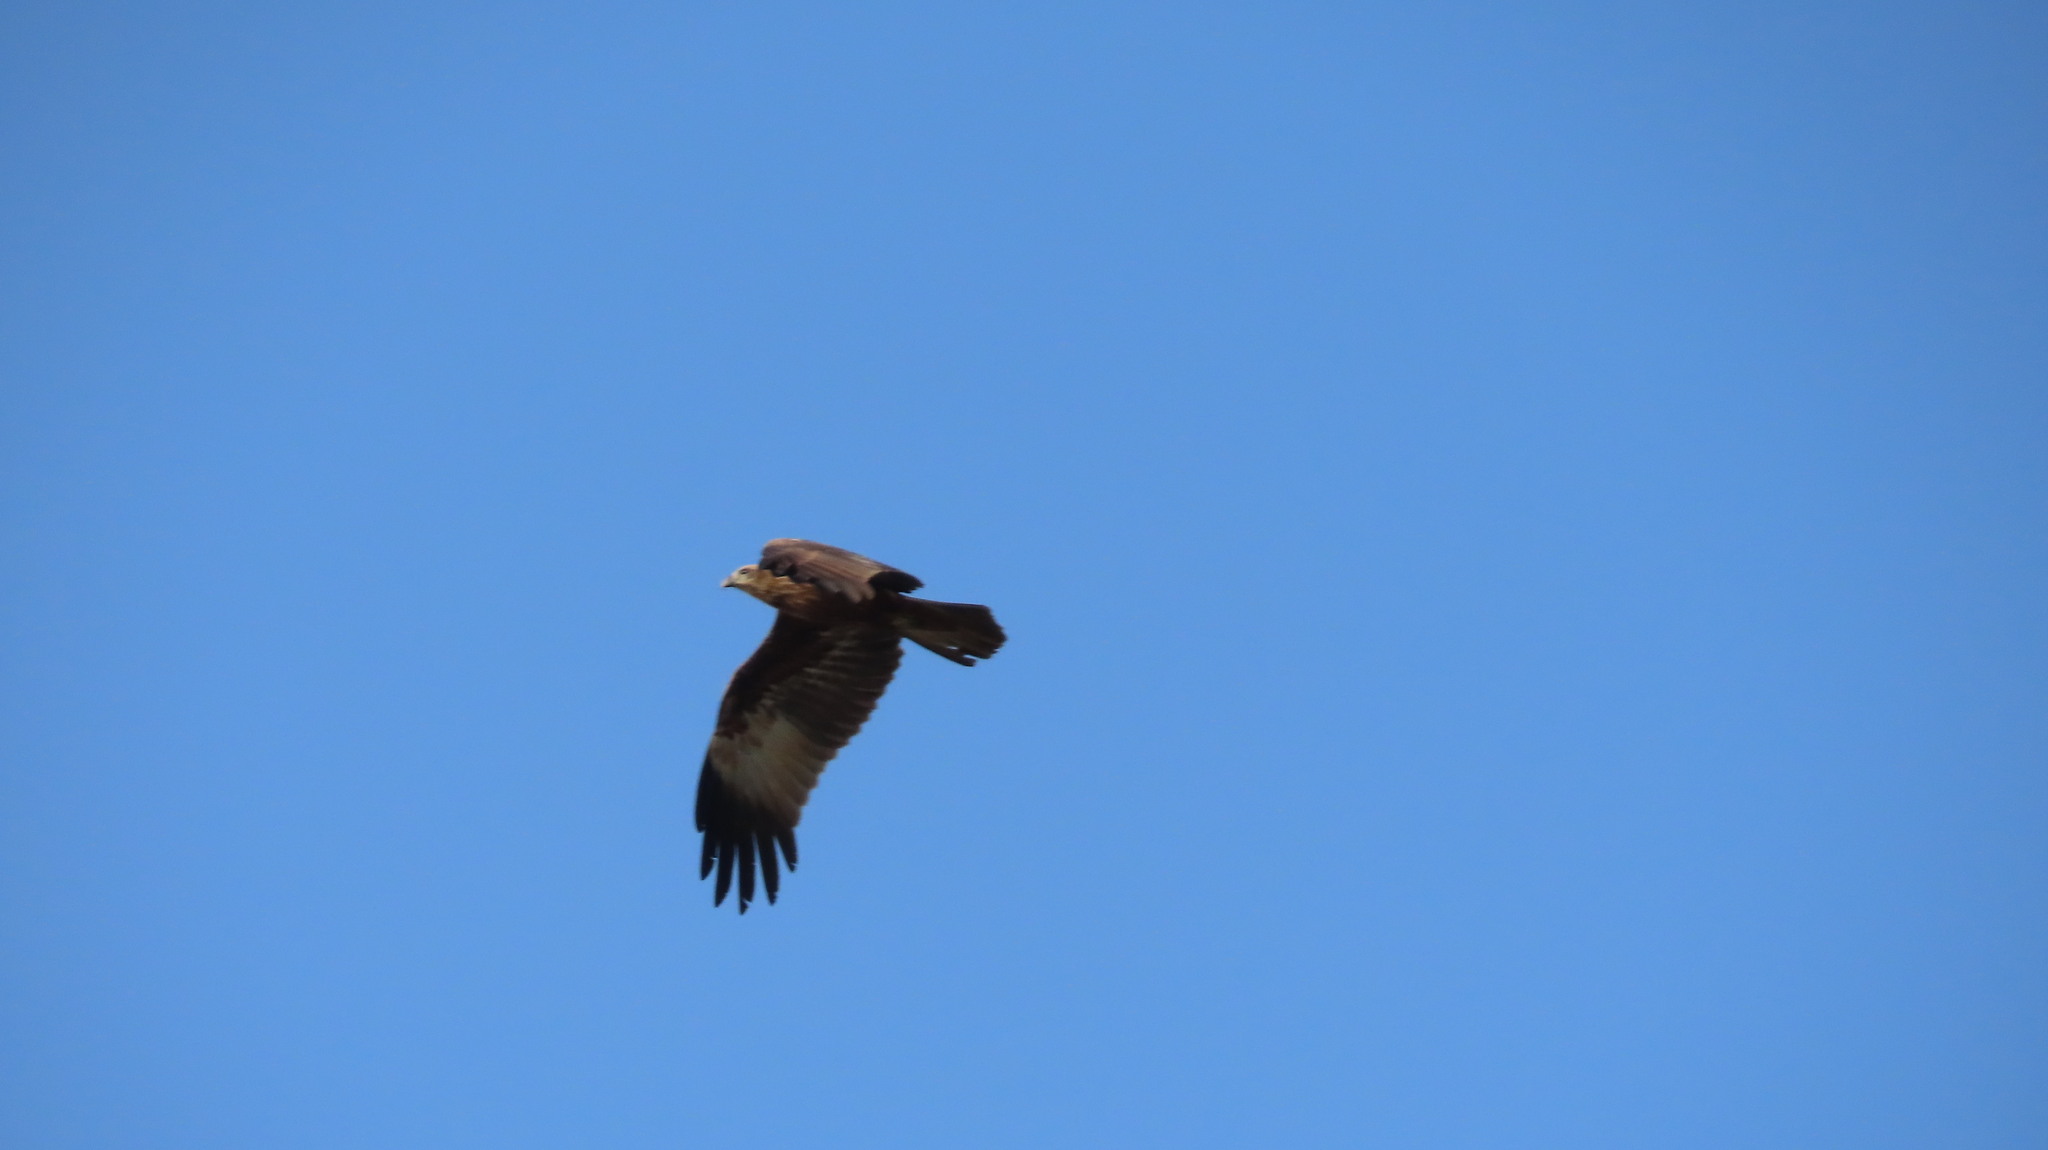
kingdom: Animalia
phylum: Chordata
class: Aves
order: Accipitriformes
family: Accipitridae
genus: Haliastur
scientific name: Haliastur indus
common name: Brahminy kite
